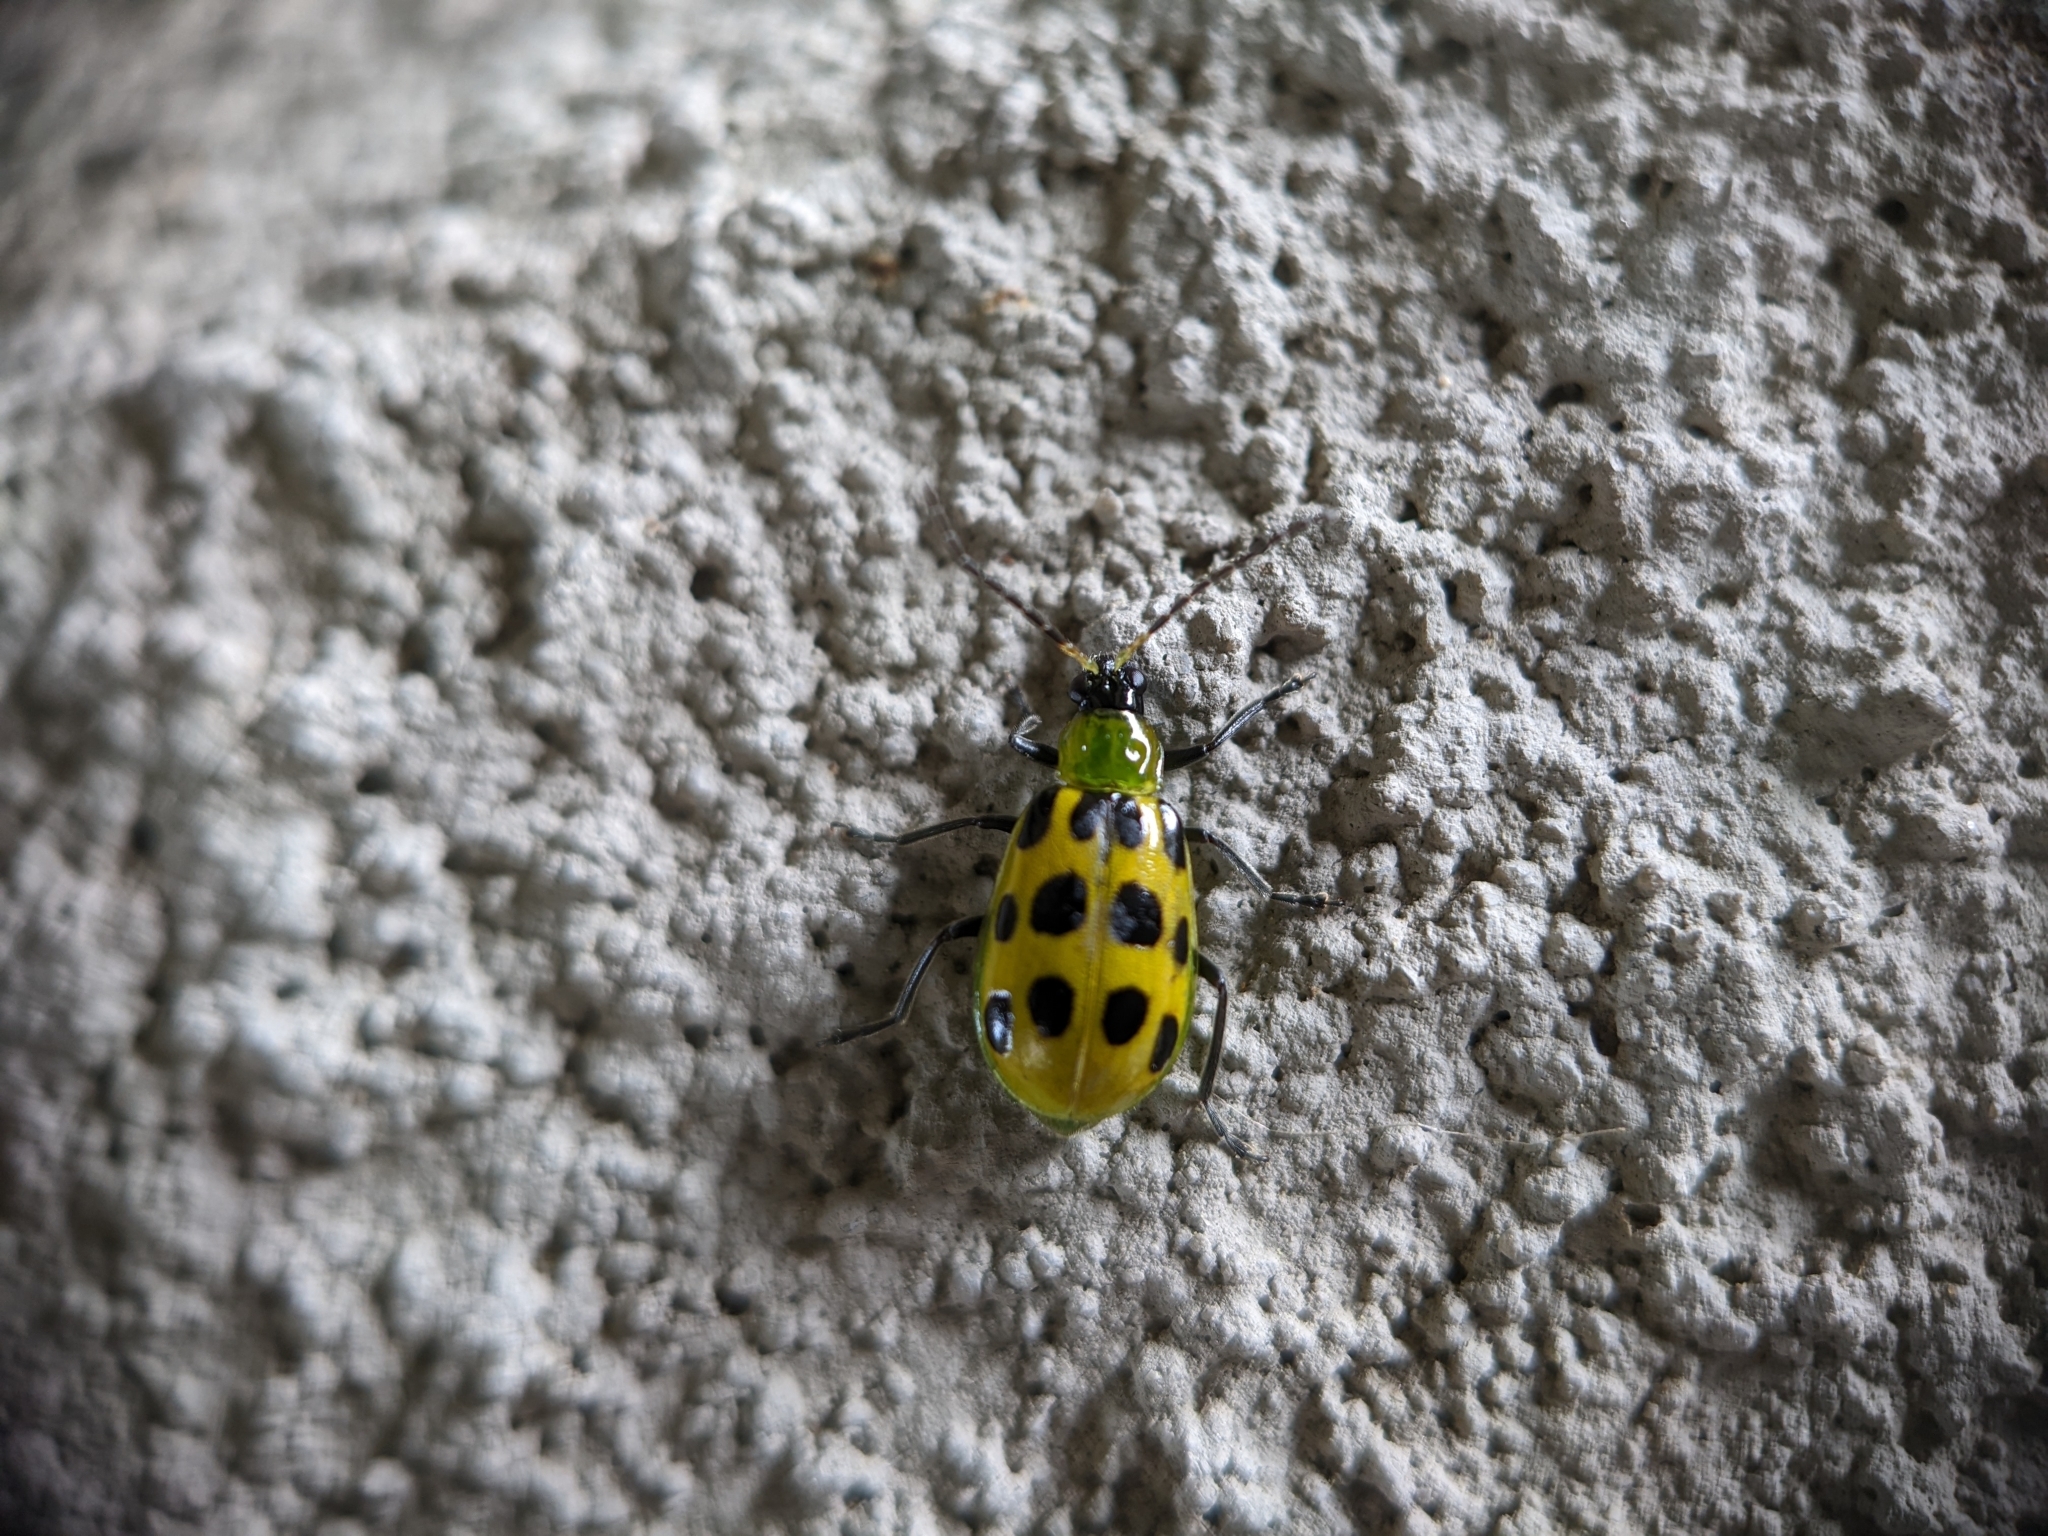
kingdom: Animalia
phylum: Arthropoda
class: Insecta
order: Coleoptera
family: Chrysomelidae
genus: Diabrotica
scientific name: Diabrotica undecimpunctata
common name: Spotted cucumber beetle
